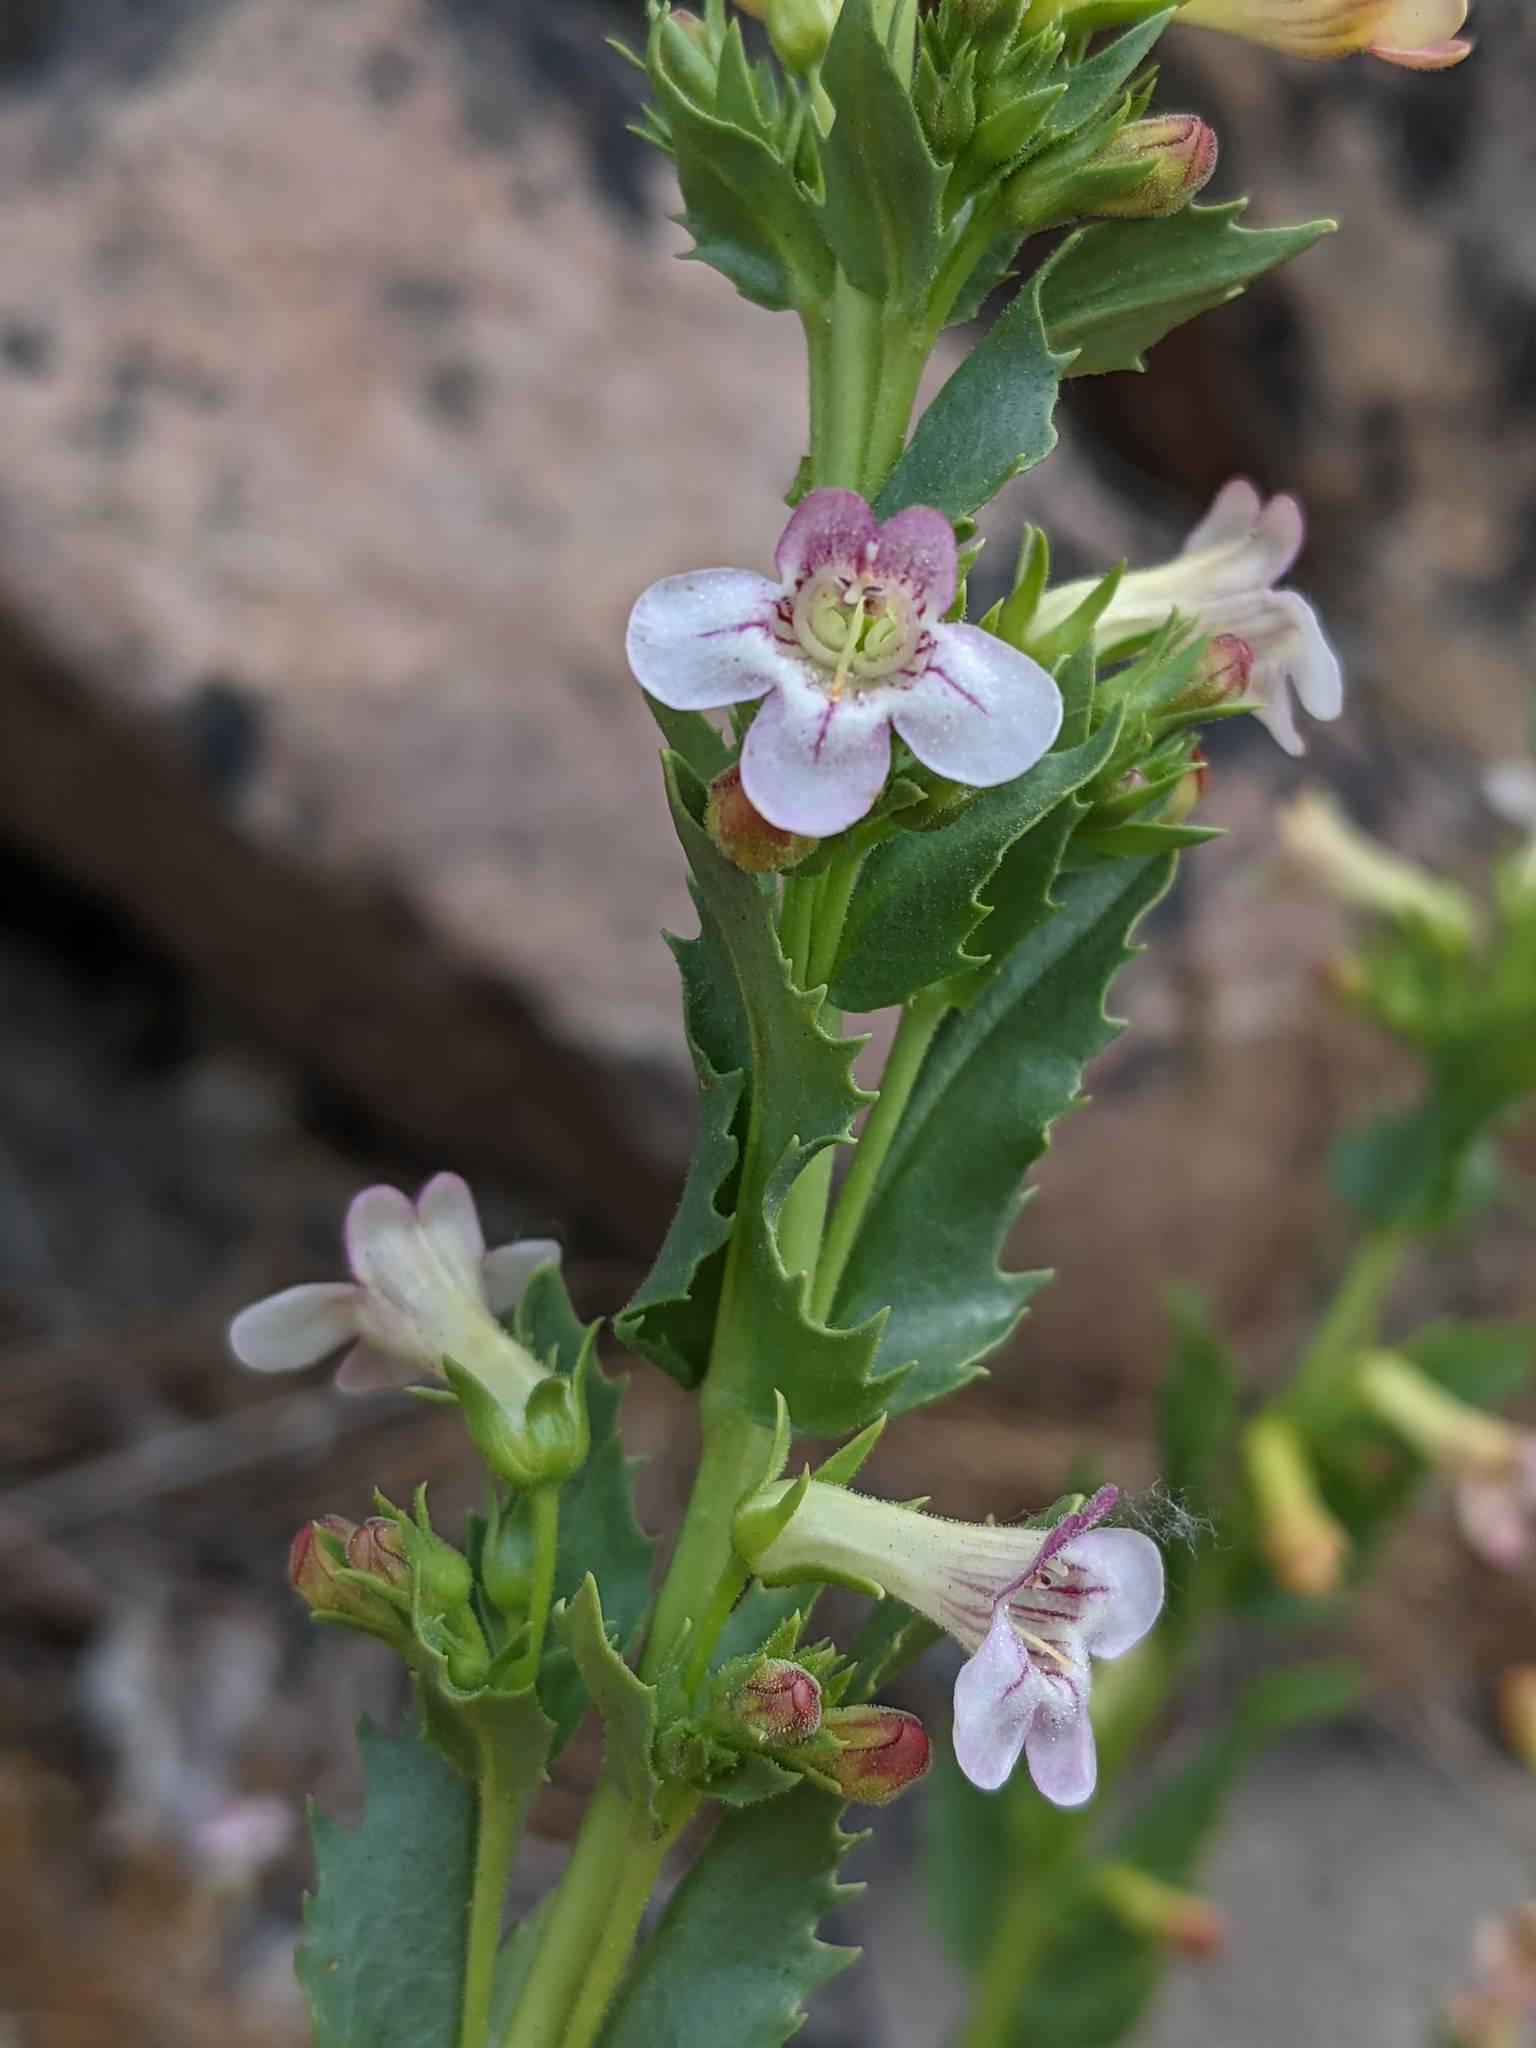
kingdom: Plantae
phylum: Tracheophyta
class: Magnoliopsida
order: Lamiales
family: Plantaginaceae
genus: Penstemon
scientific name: Penstemon deustus
